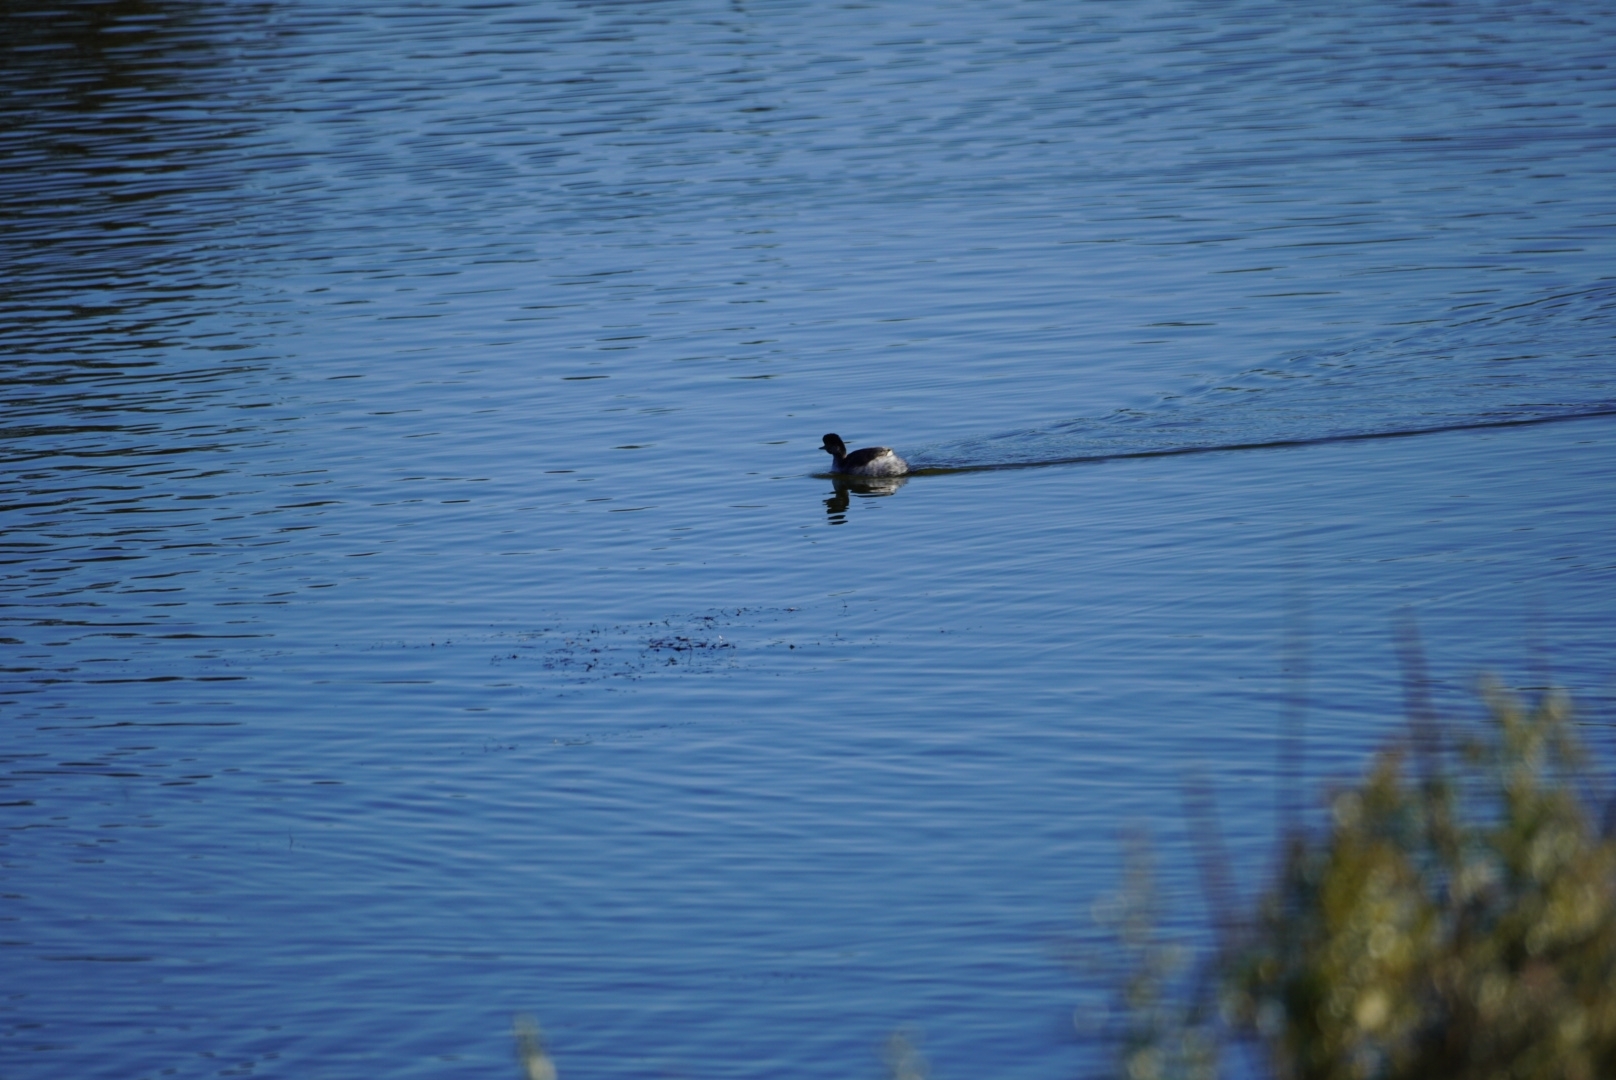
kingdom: Animalia
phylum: Chordata
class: Aves
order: Podicipediformes
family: Podicipedidae
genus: Tachybaptus
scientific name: Tachybaptus ruficollis
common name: Little grebe
